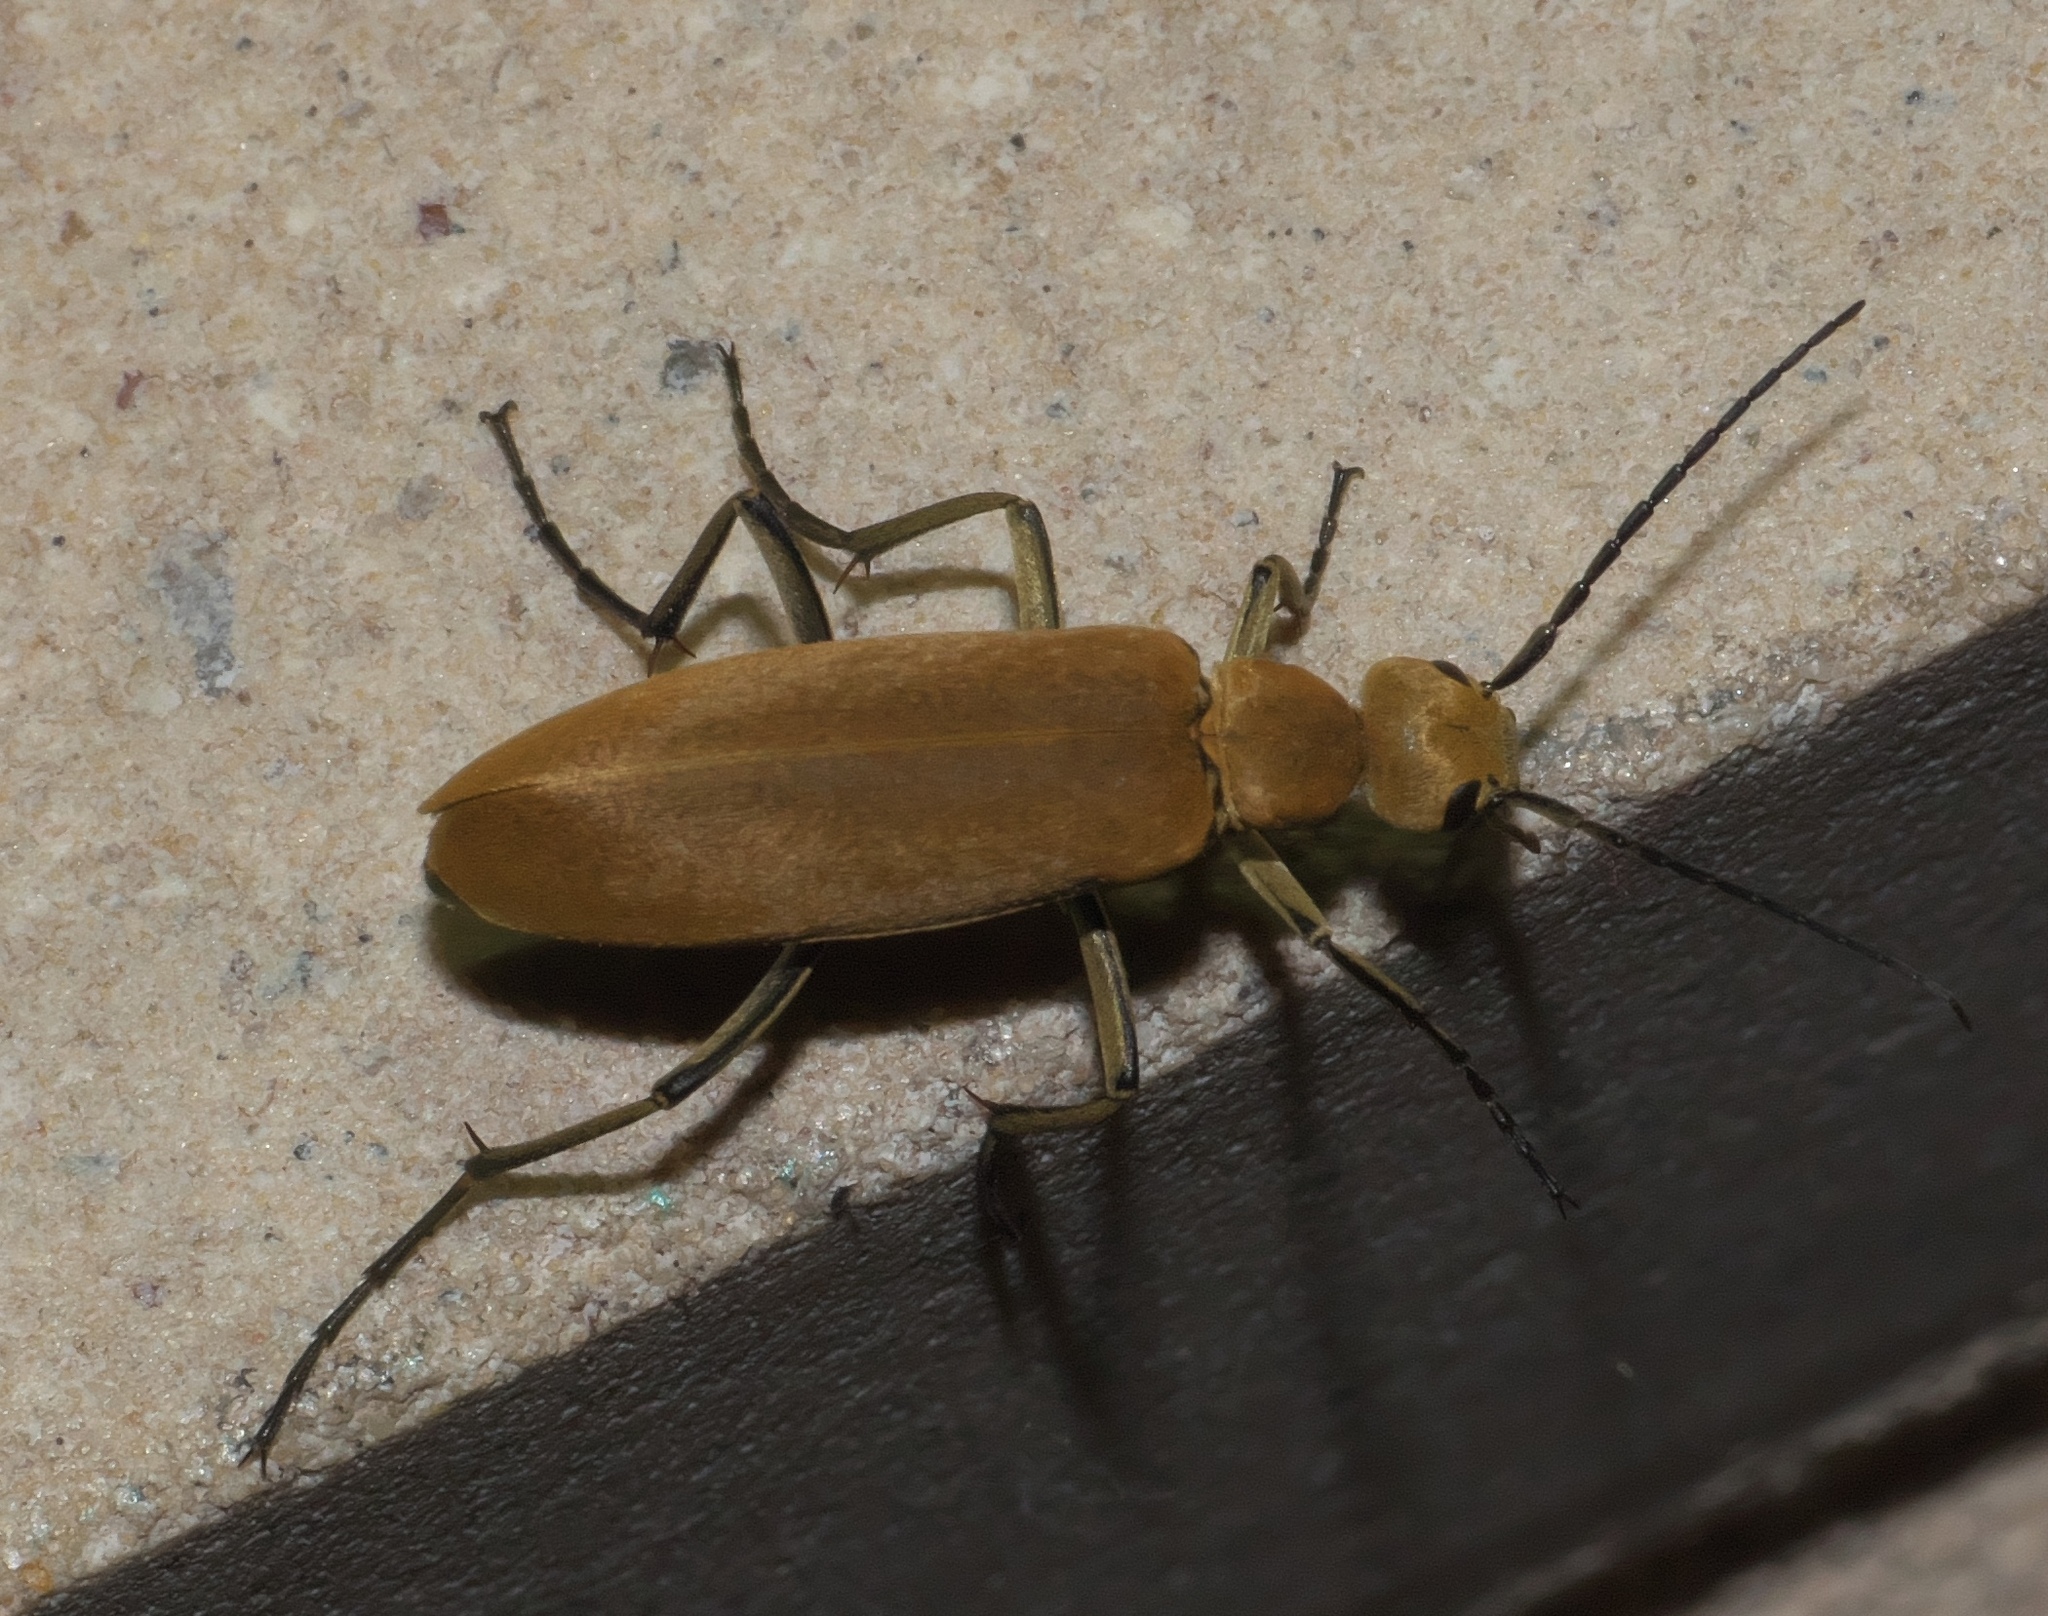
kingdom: Animalia
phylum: Arthropoda
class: Insecta
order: Coleoptera
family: Meloidae
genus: Epicauta
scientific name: Epicauta immaculata
